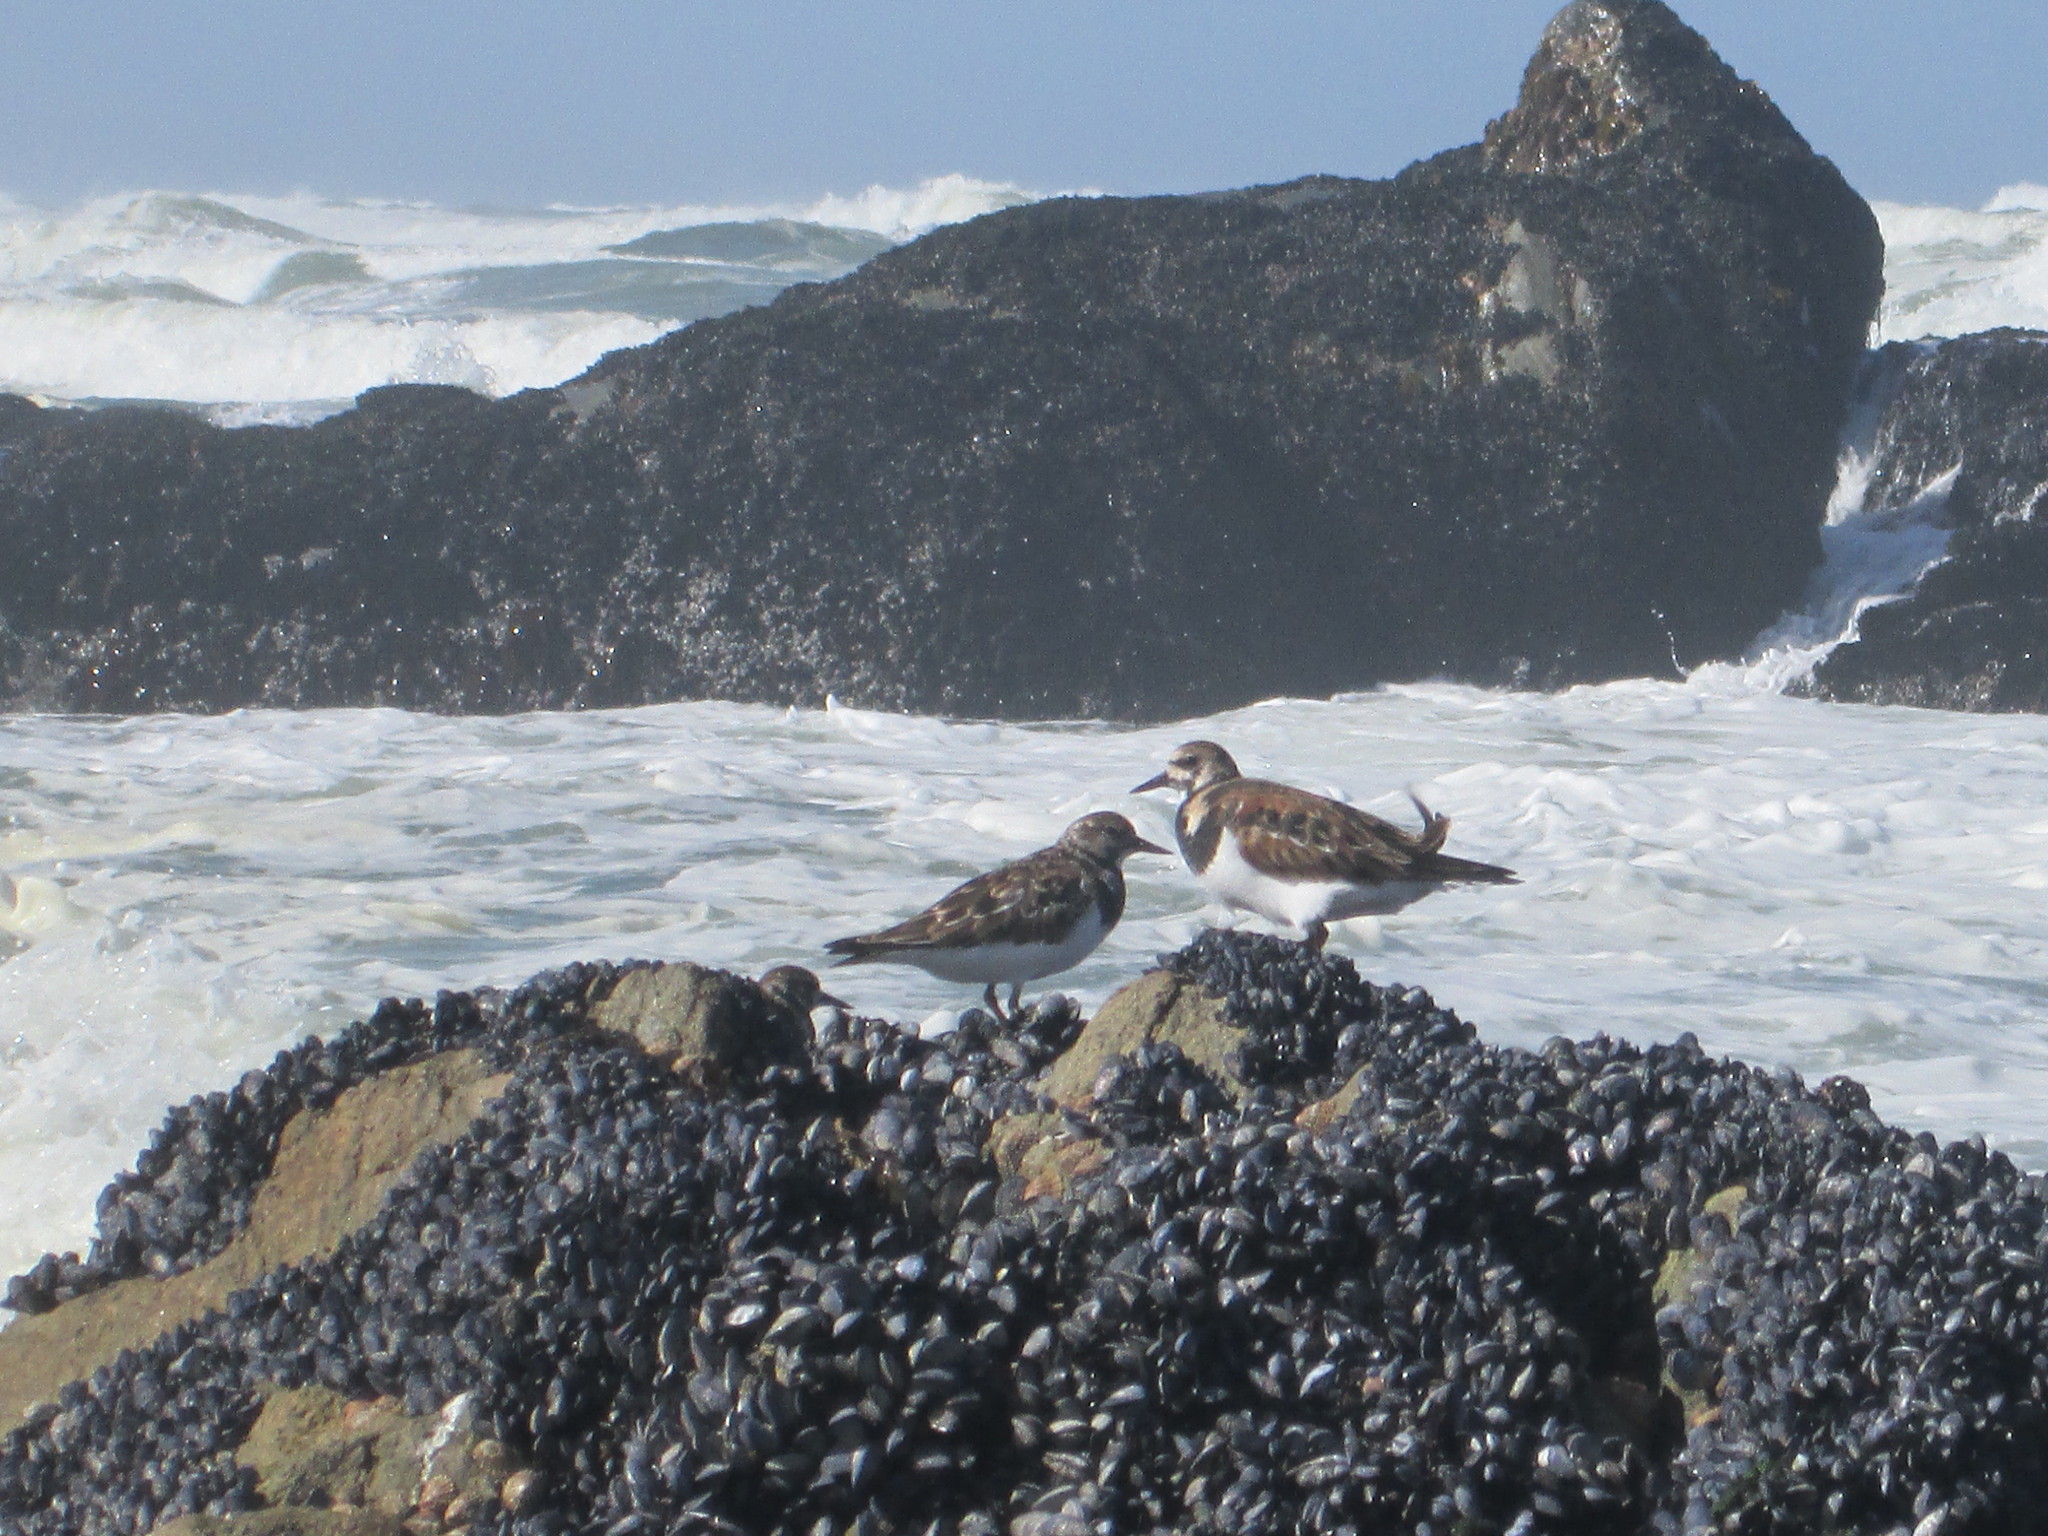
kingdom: Animalia
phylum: Chordata
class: Aves
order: Charadriiformes
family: Scolopacidae
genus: Arenaria
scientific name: Arenaria interpres
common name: Ruddy turnstone
